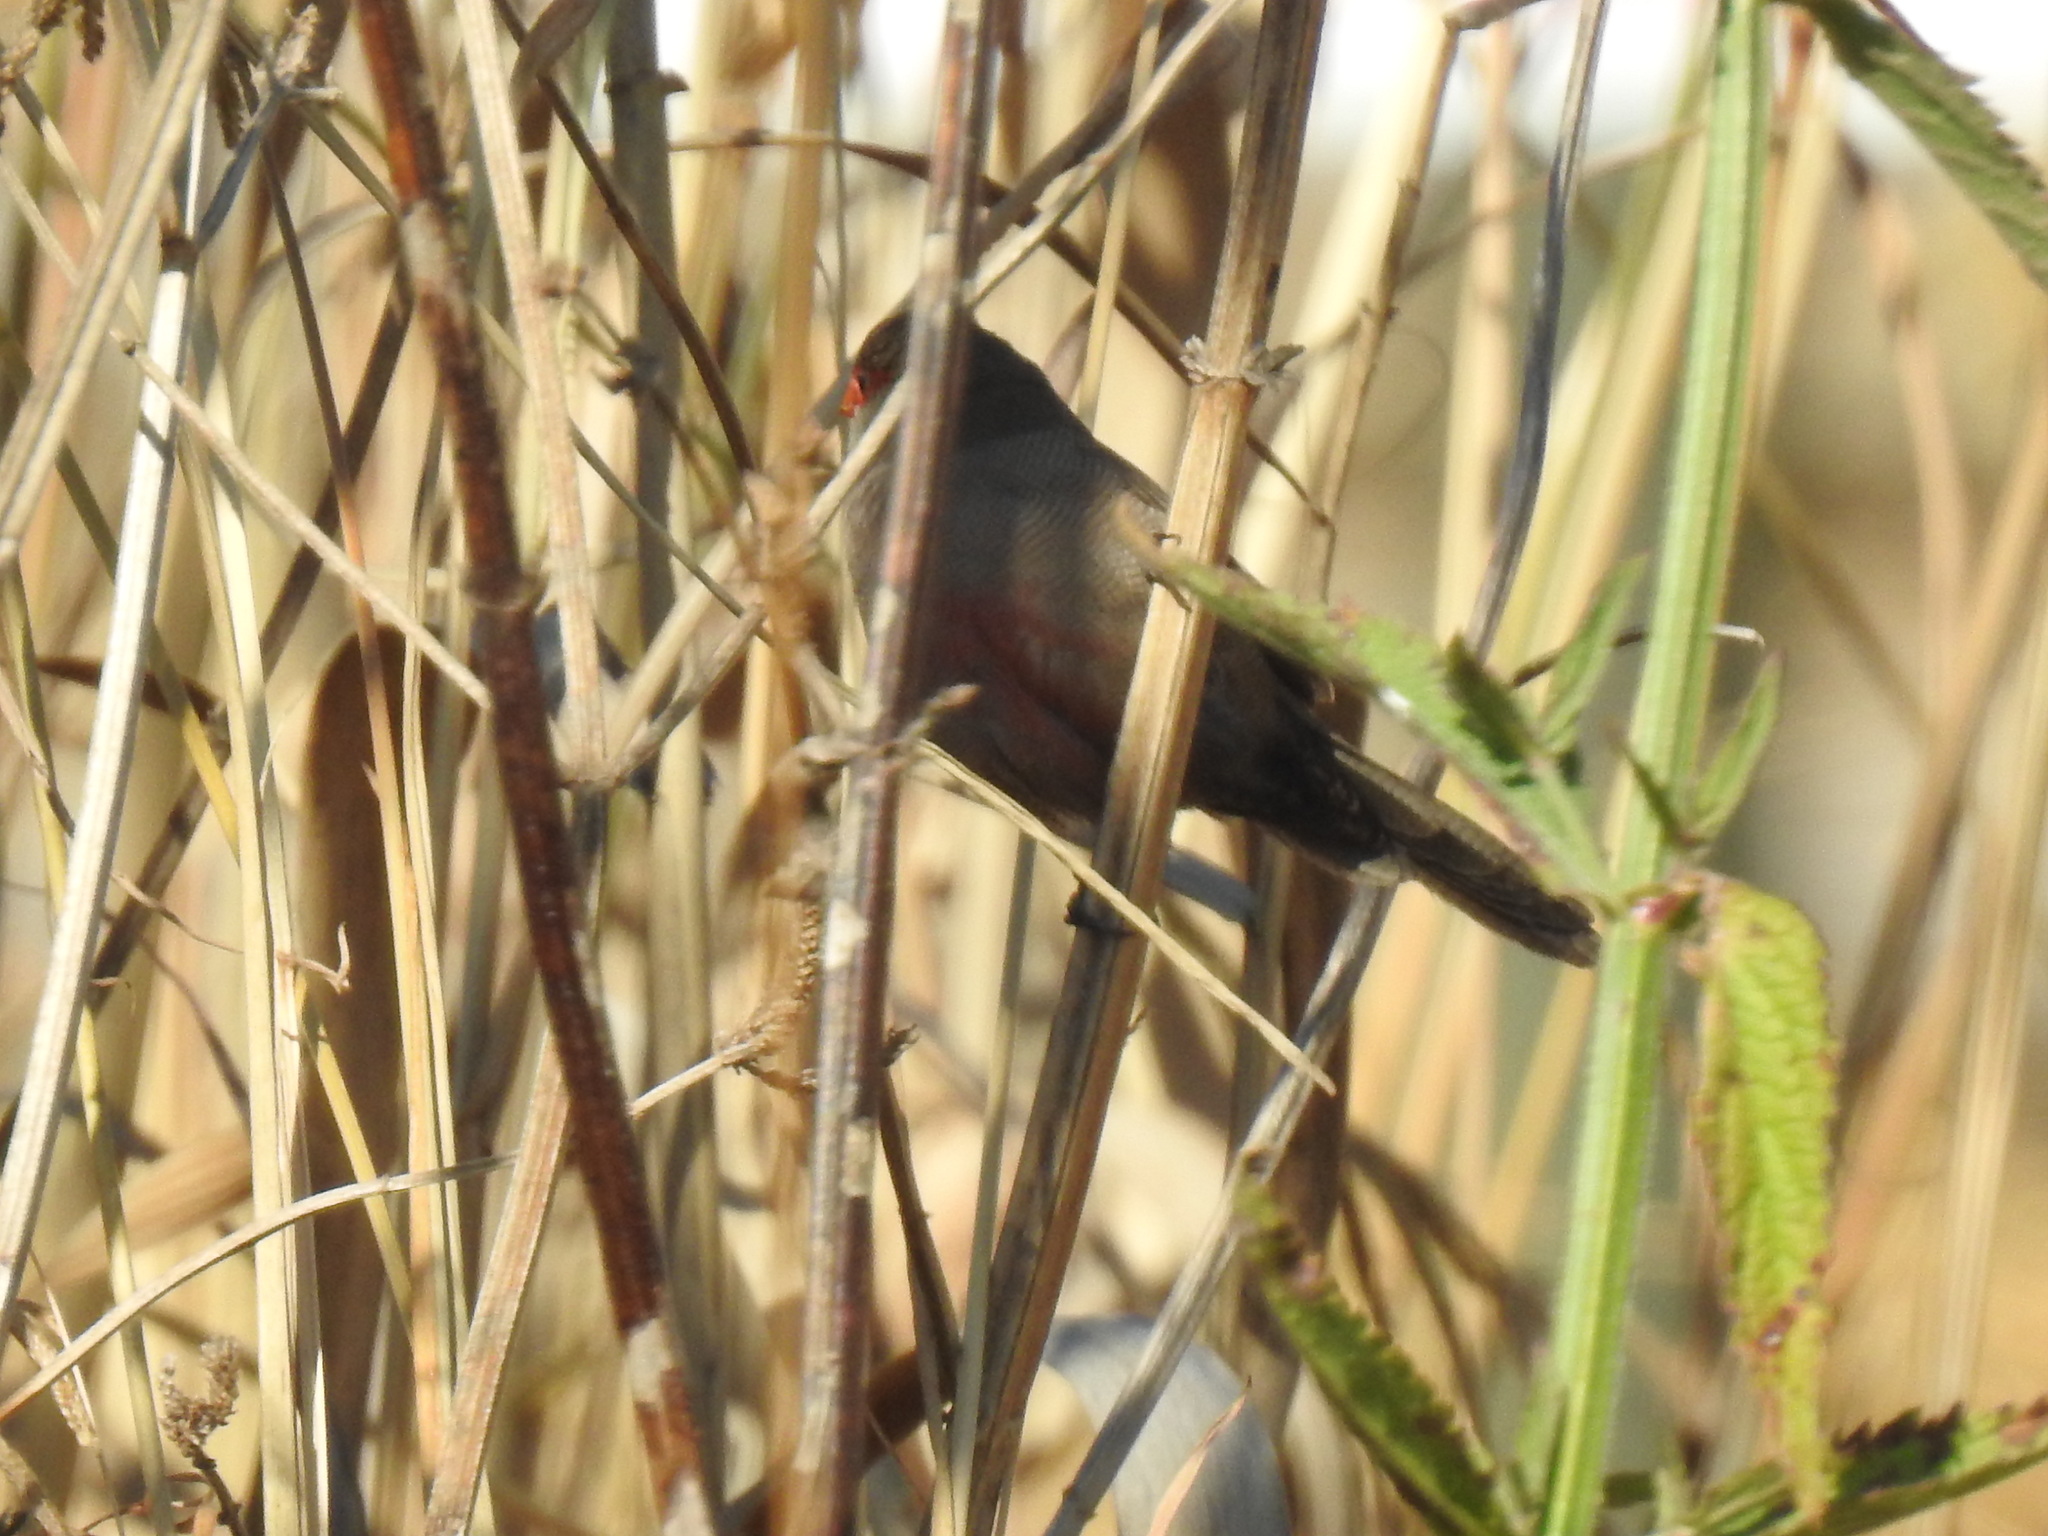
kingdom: Animalia
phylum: Chordata
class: Aves
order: Passeriformes
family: Estrildidae
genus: Estrilda
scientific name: Estrilda astrild
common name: Common waxbill
